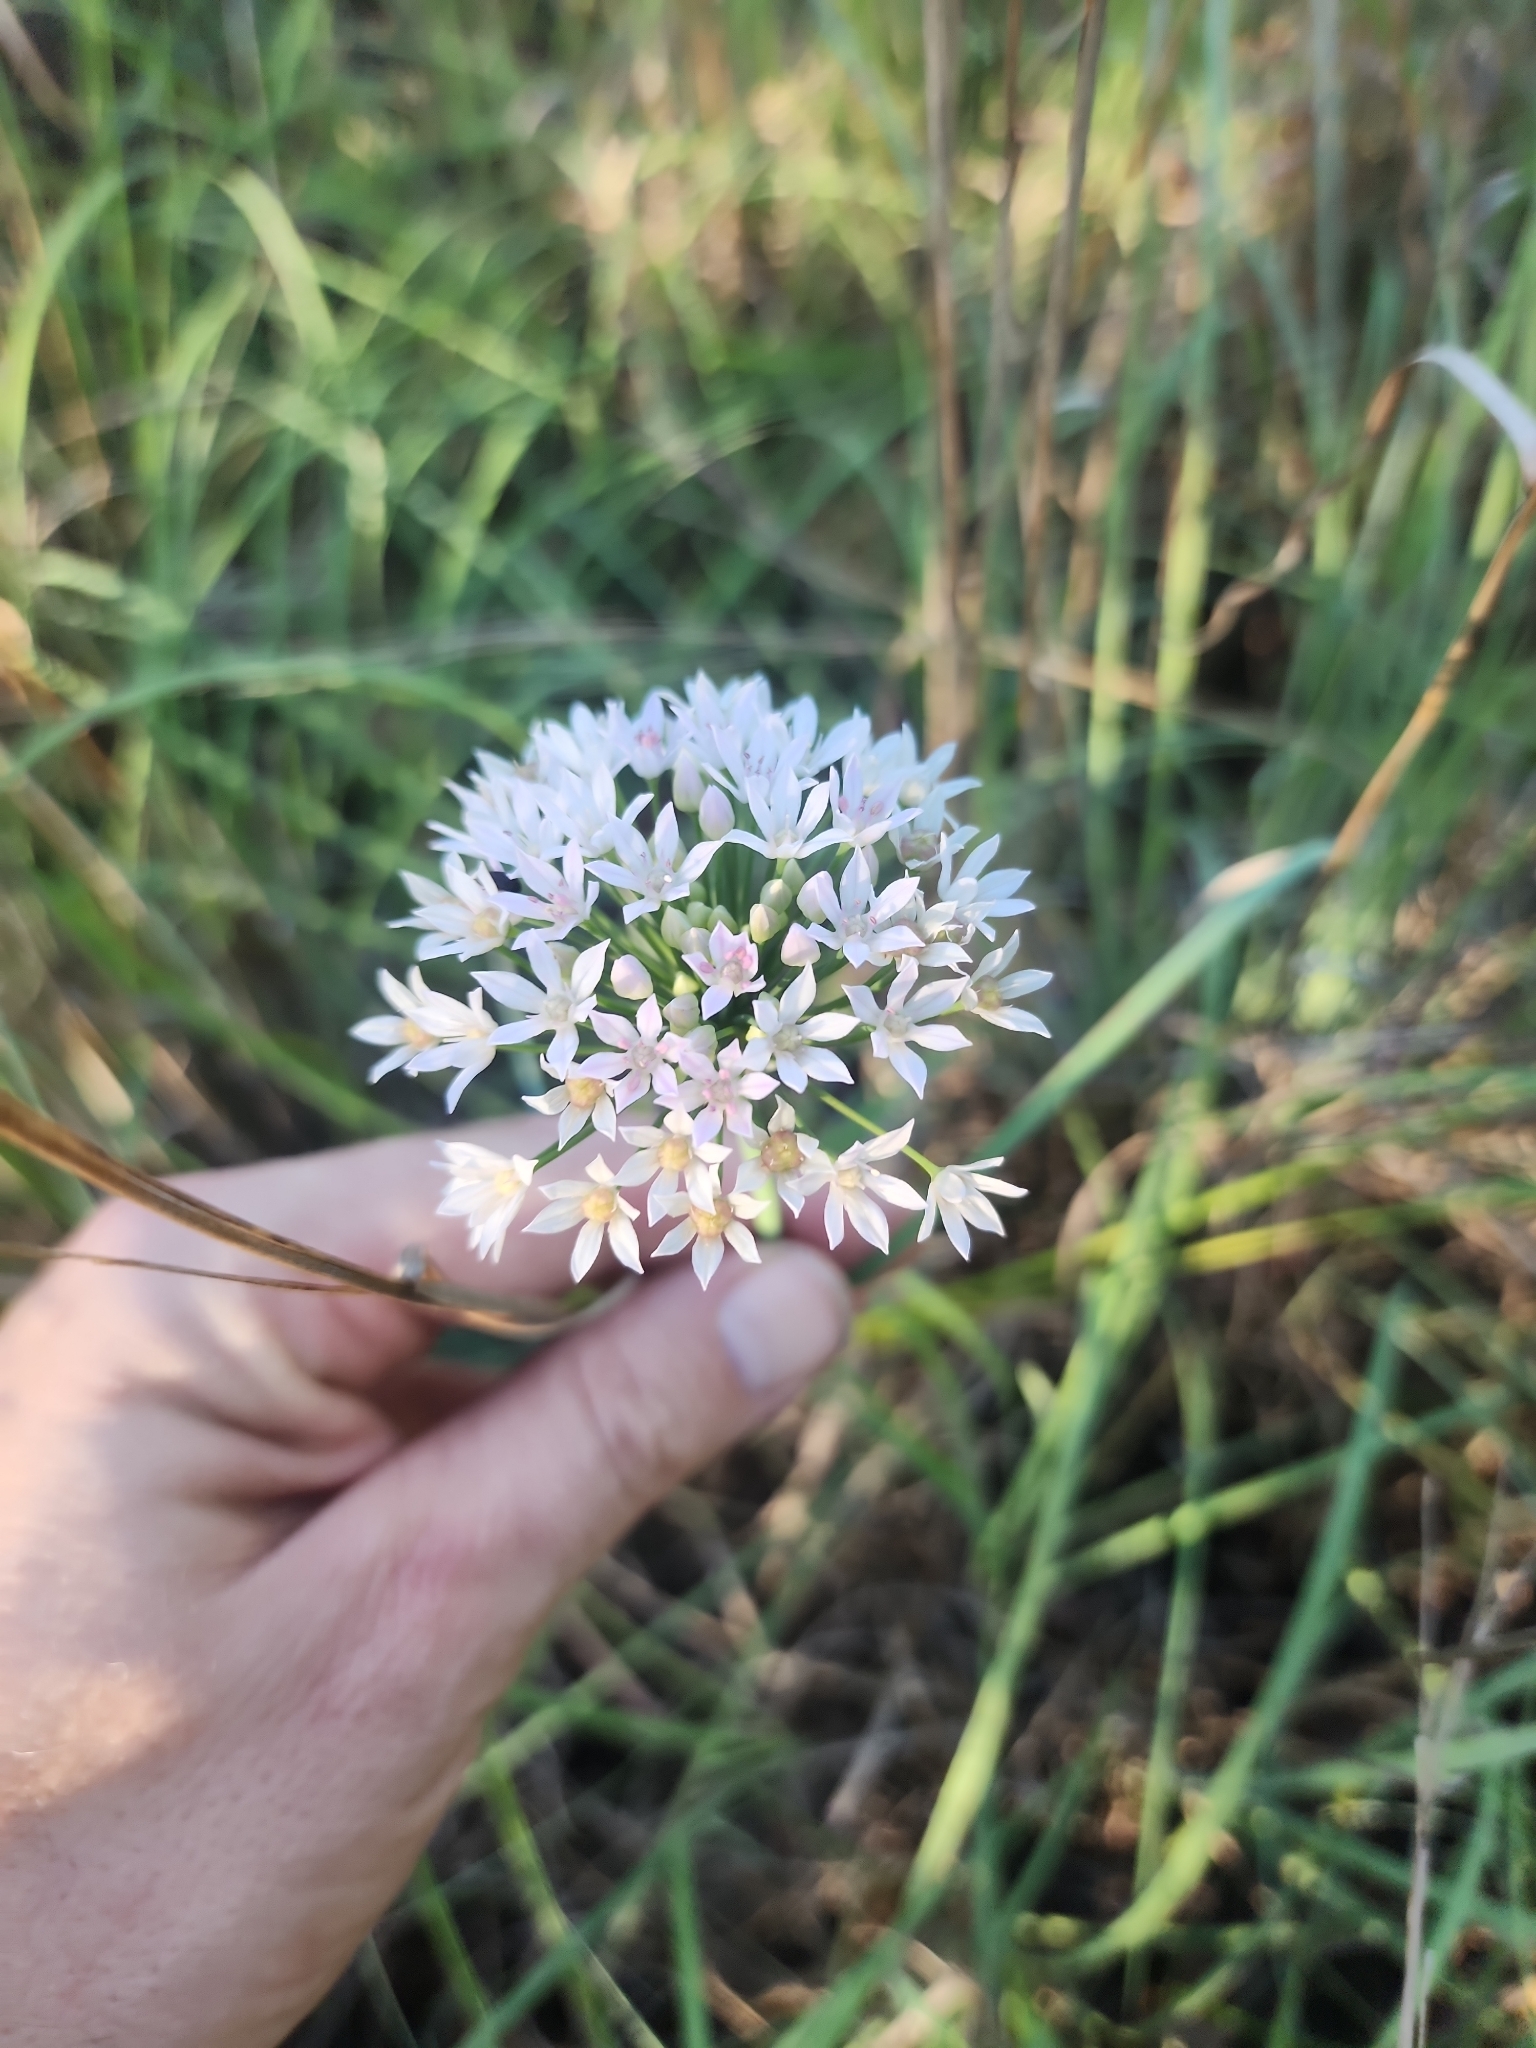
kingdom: Plantae
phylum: Tracheophyta
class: Liliopsida
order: Asparagales
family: Amaryllidaceae
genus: Allium
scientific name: Allium canadense
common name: Meadow garlic
